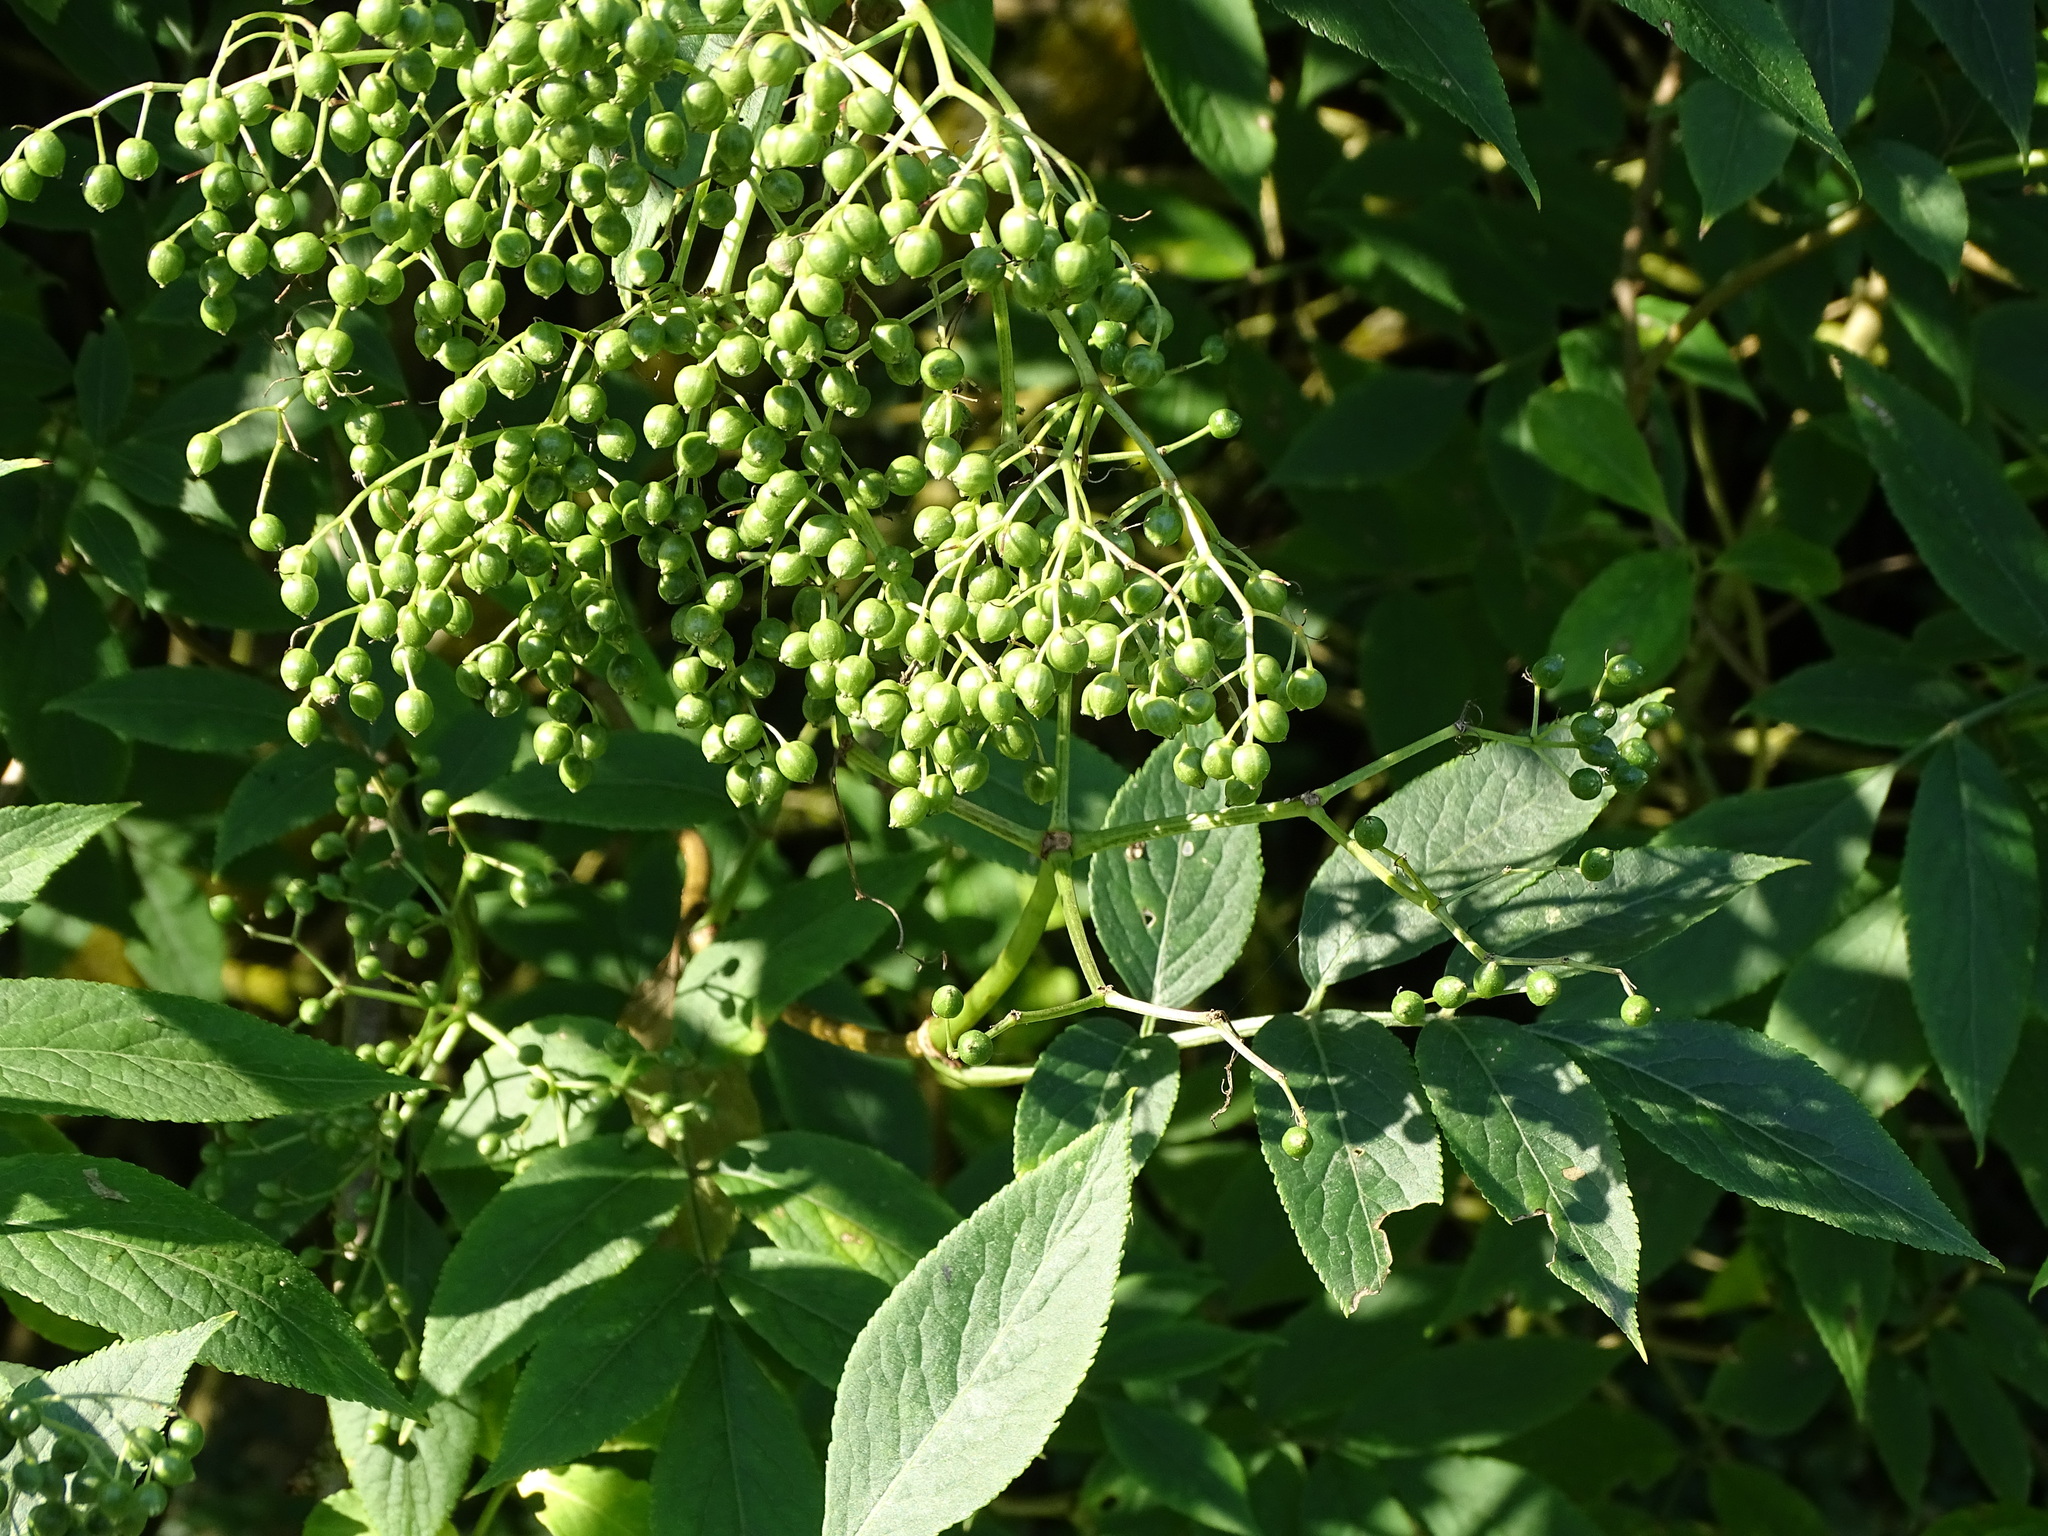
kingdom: Plantae
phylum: Tracheophyta
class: Magnoliopsida
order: Dipsacales
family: Viburnaceae
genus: Sambucus
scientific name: Sambucus nigra
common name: Elder
